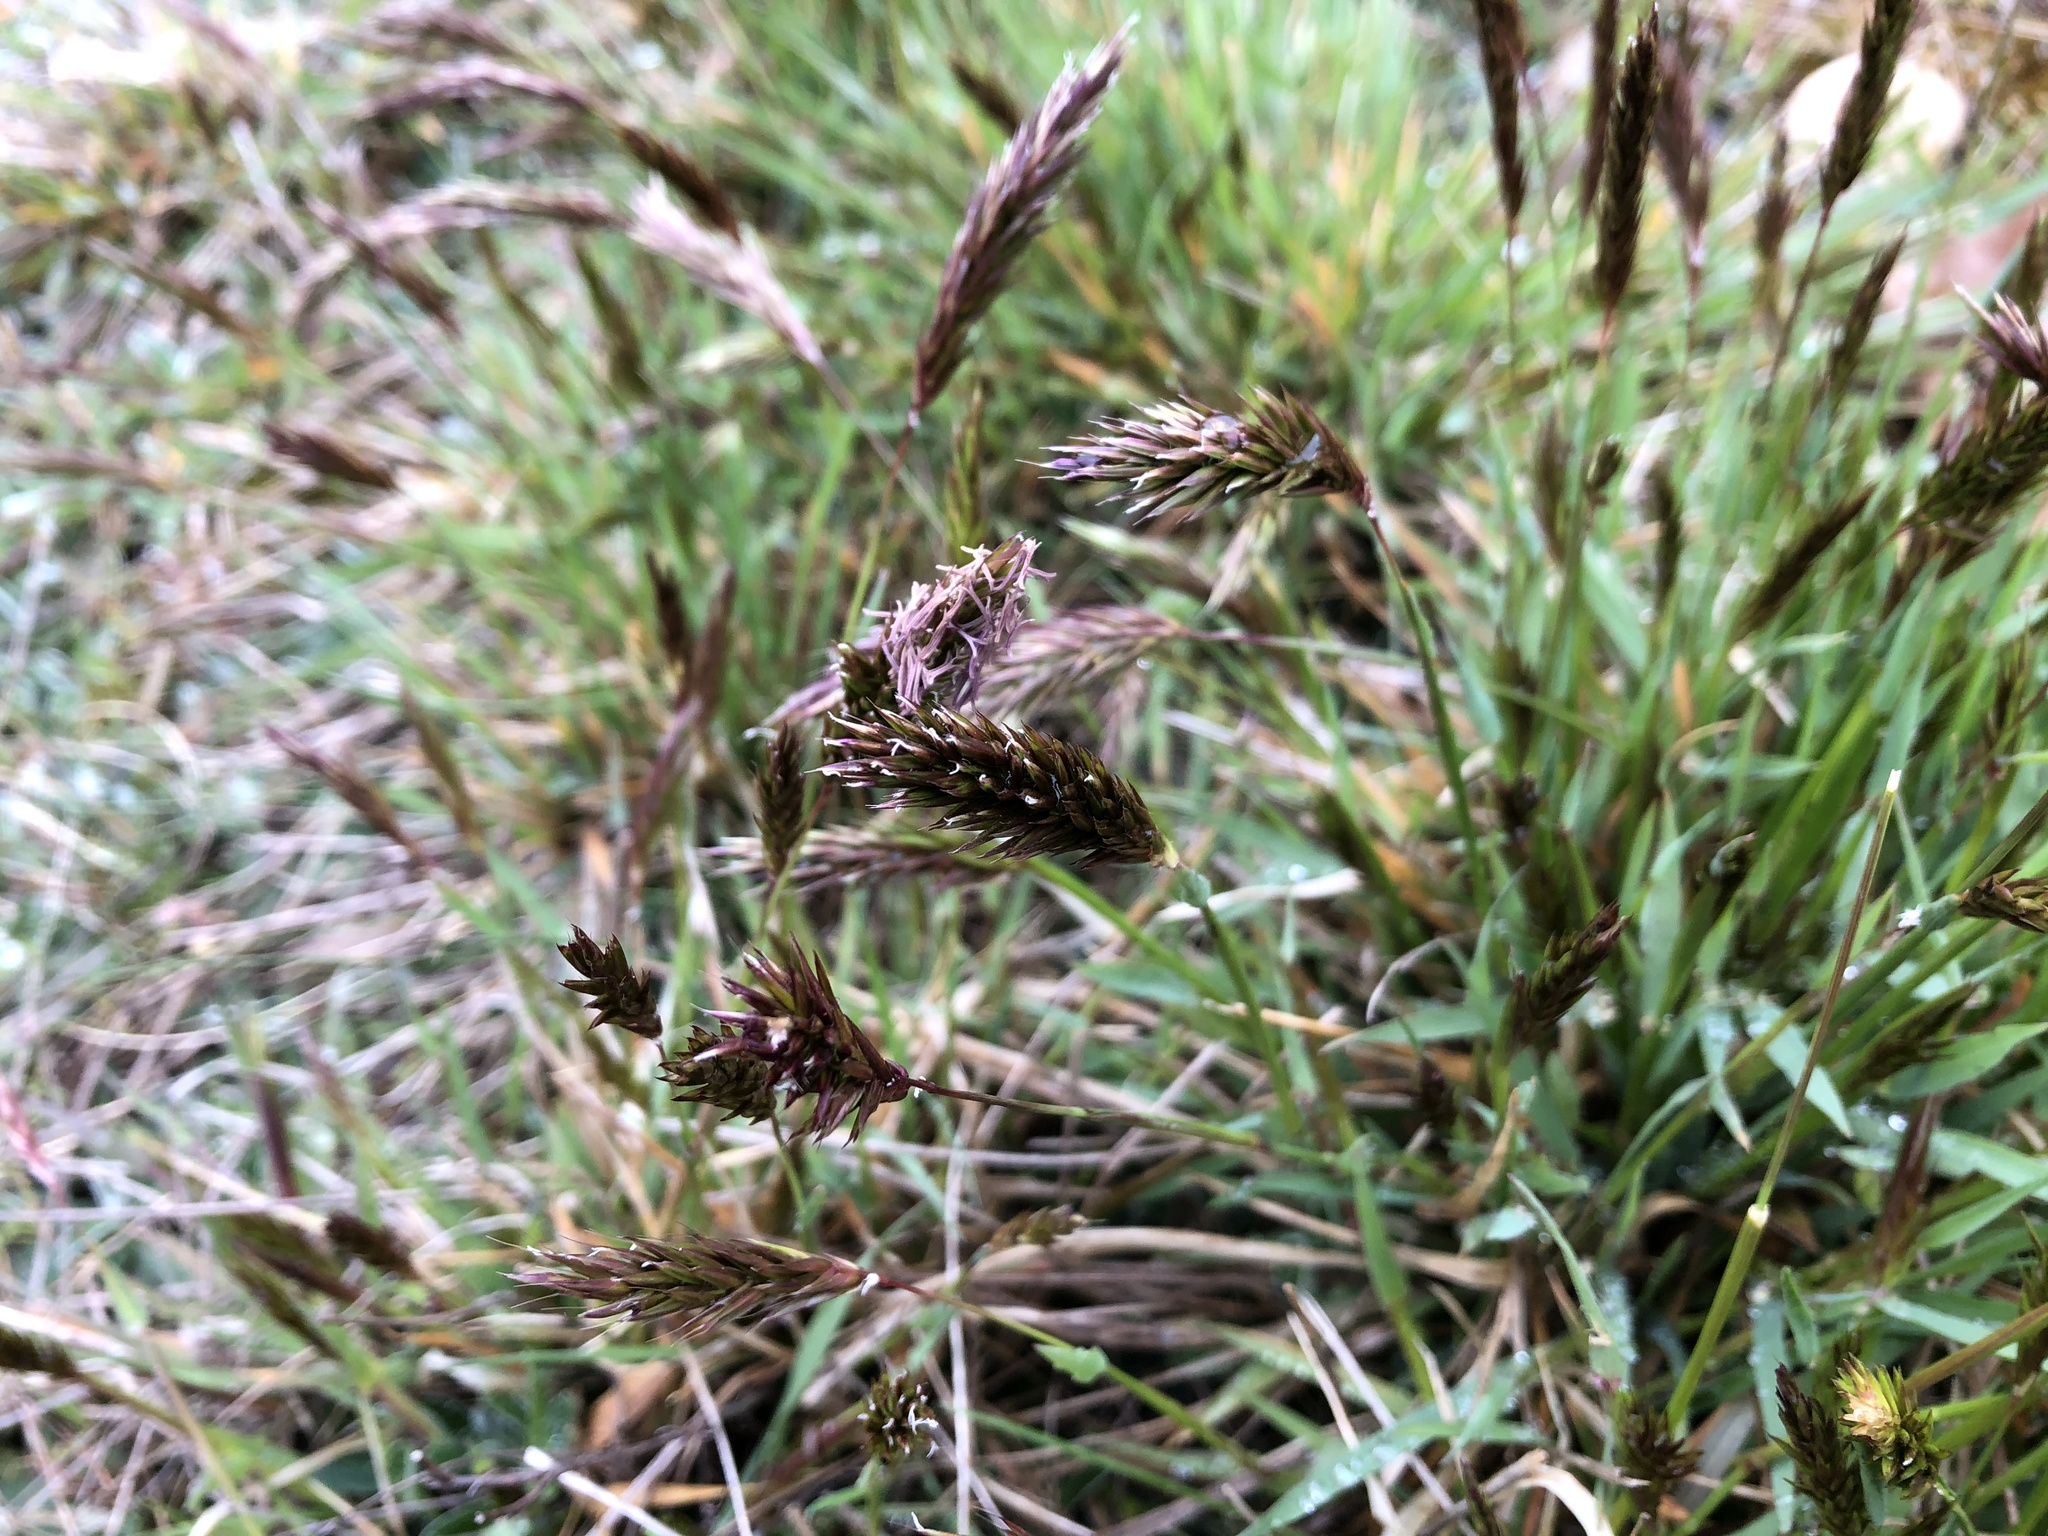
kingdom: Plantae
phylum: Tracheophyta
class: Liliopsida
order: Poales
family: Poaceae
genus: Anthoxanthum
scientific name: Anthoxanthum odoratum
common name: Sweet vernalgrass
